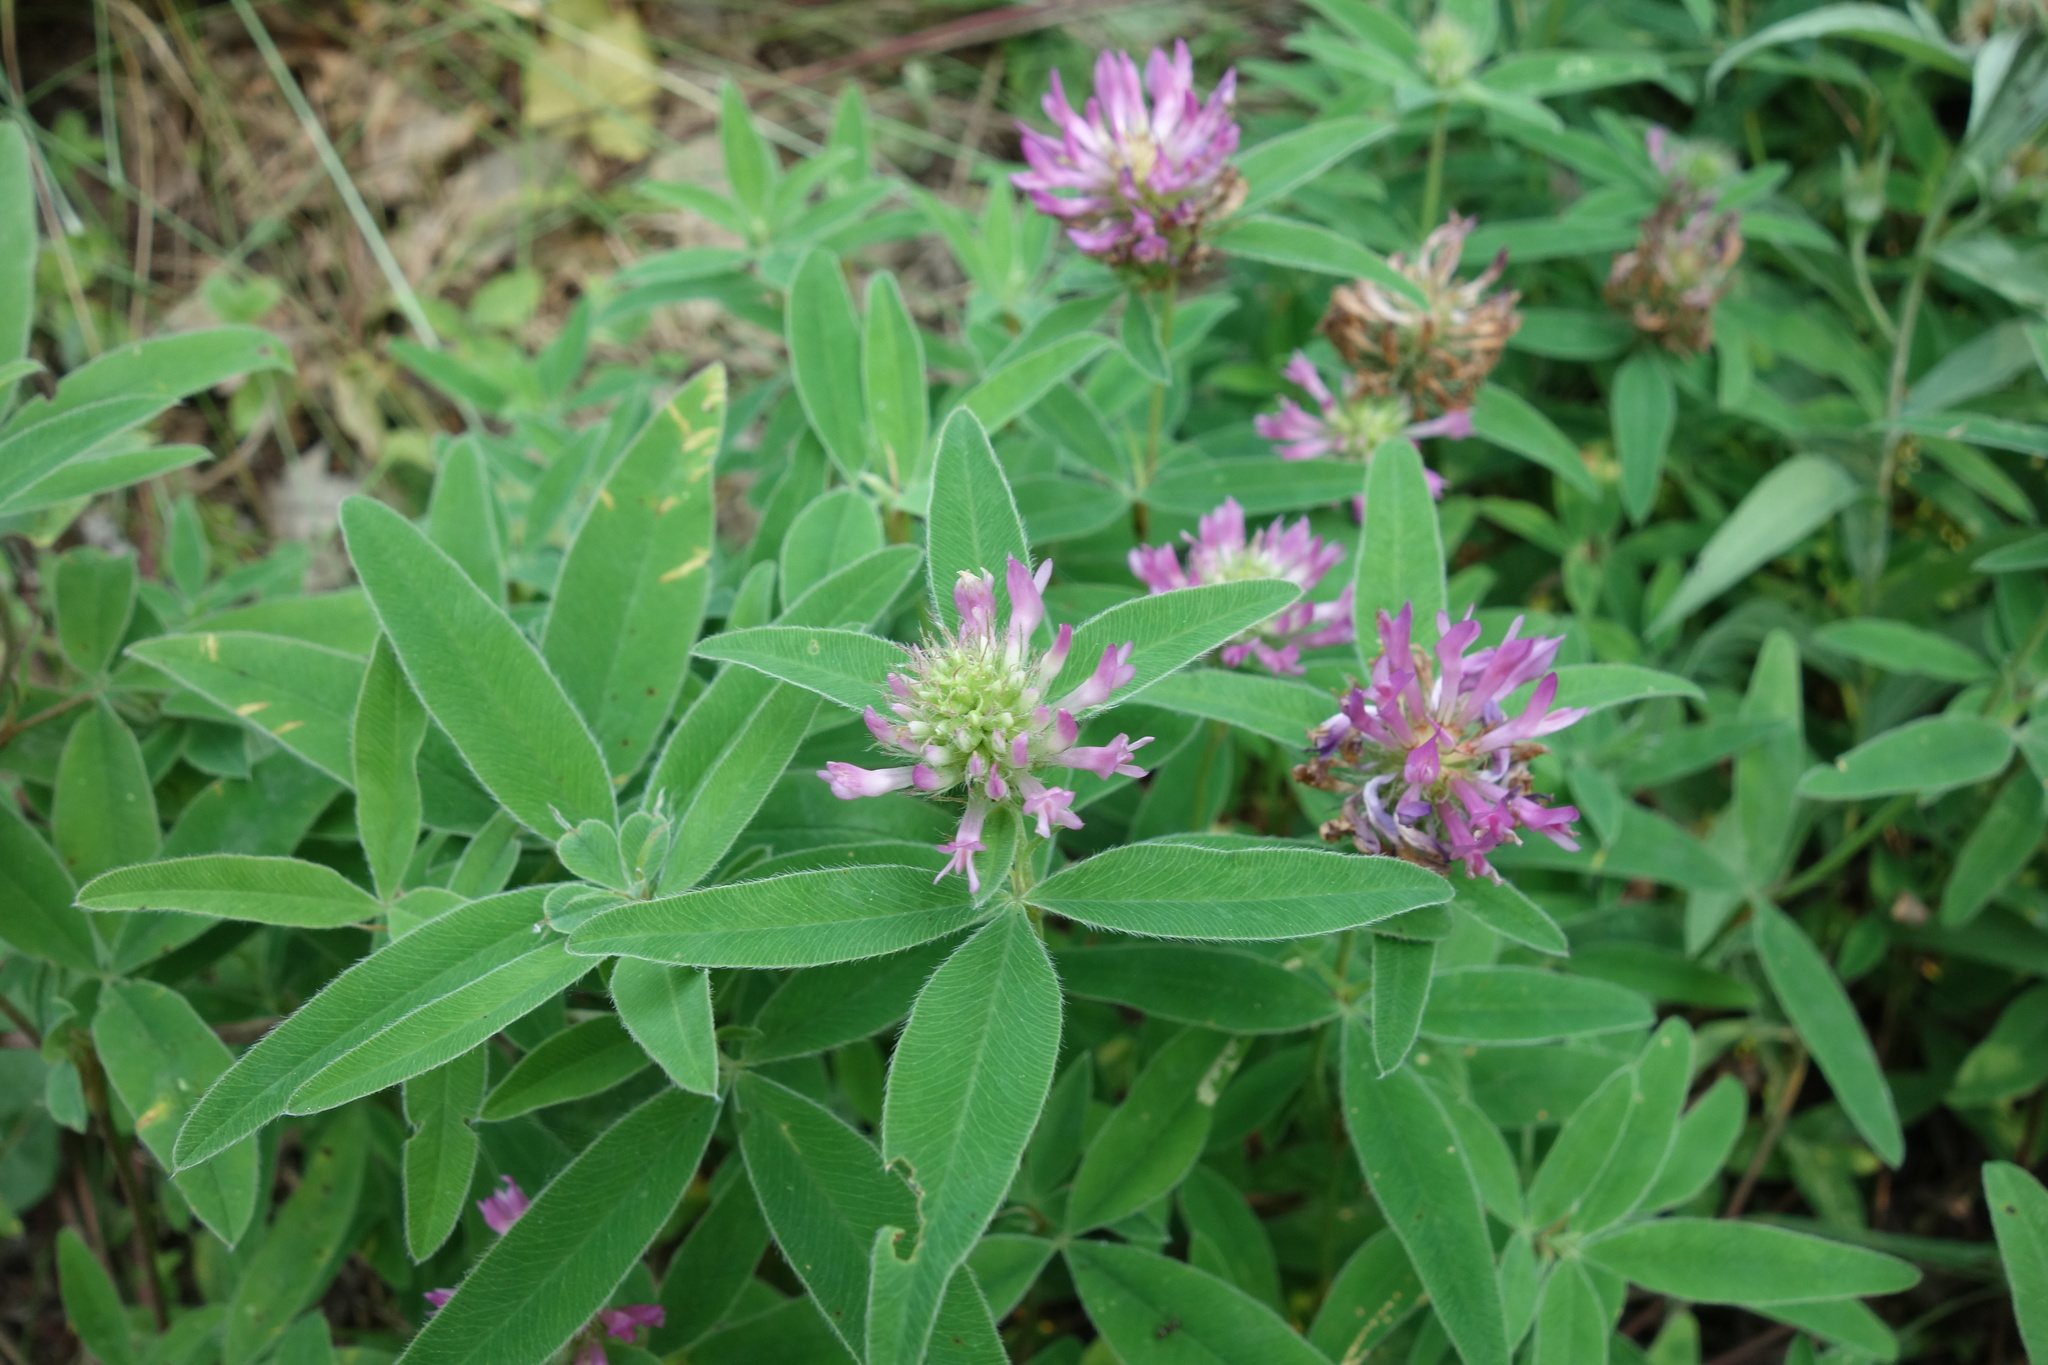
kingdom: Plantae
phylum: Tracheophyta
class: Magnoliopsida
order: Fabales
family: Fabaceae
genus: Trifolium
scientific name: Trifolium medium
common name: Zigzag clover
